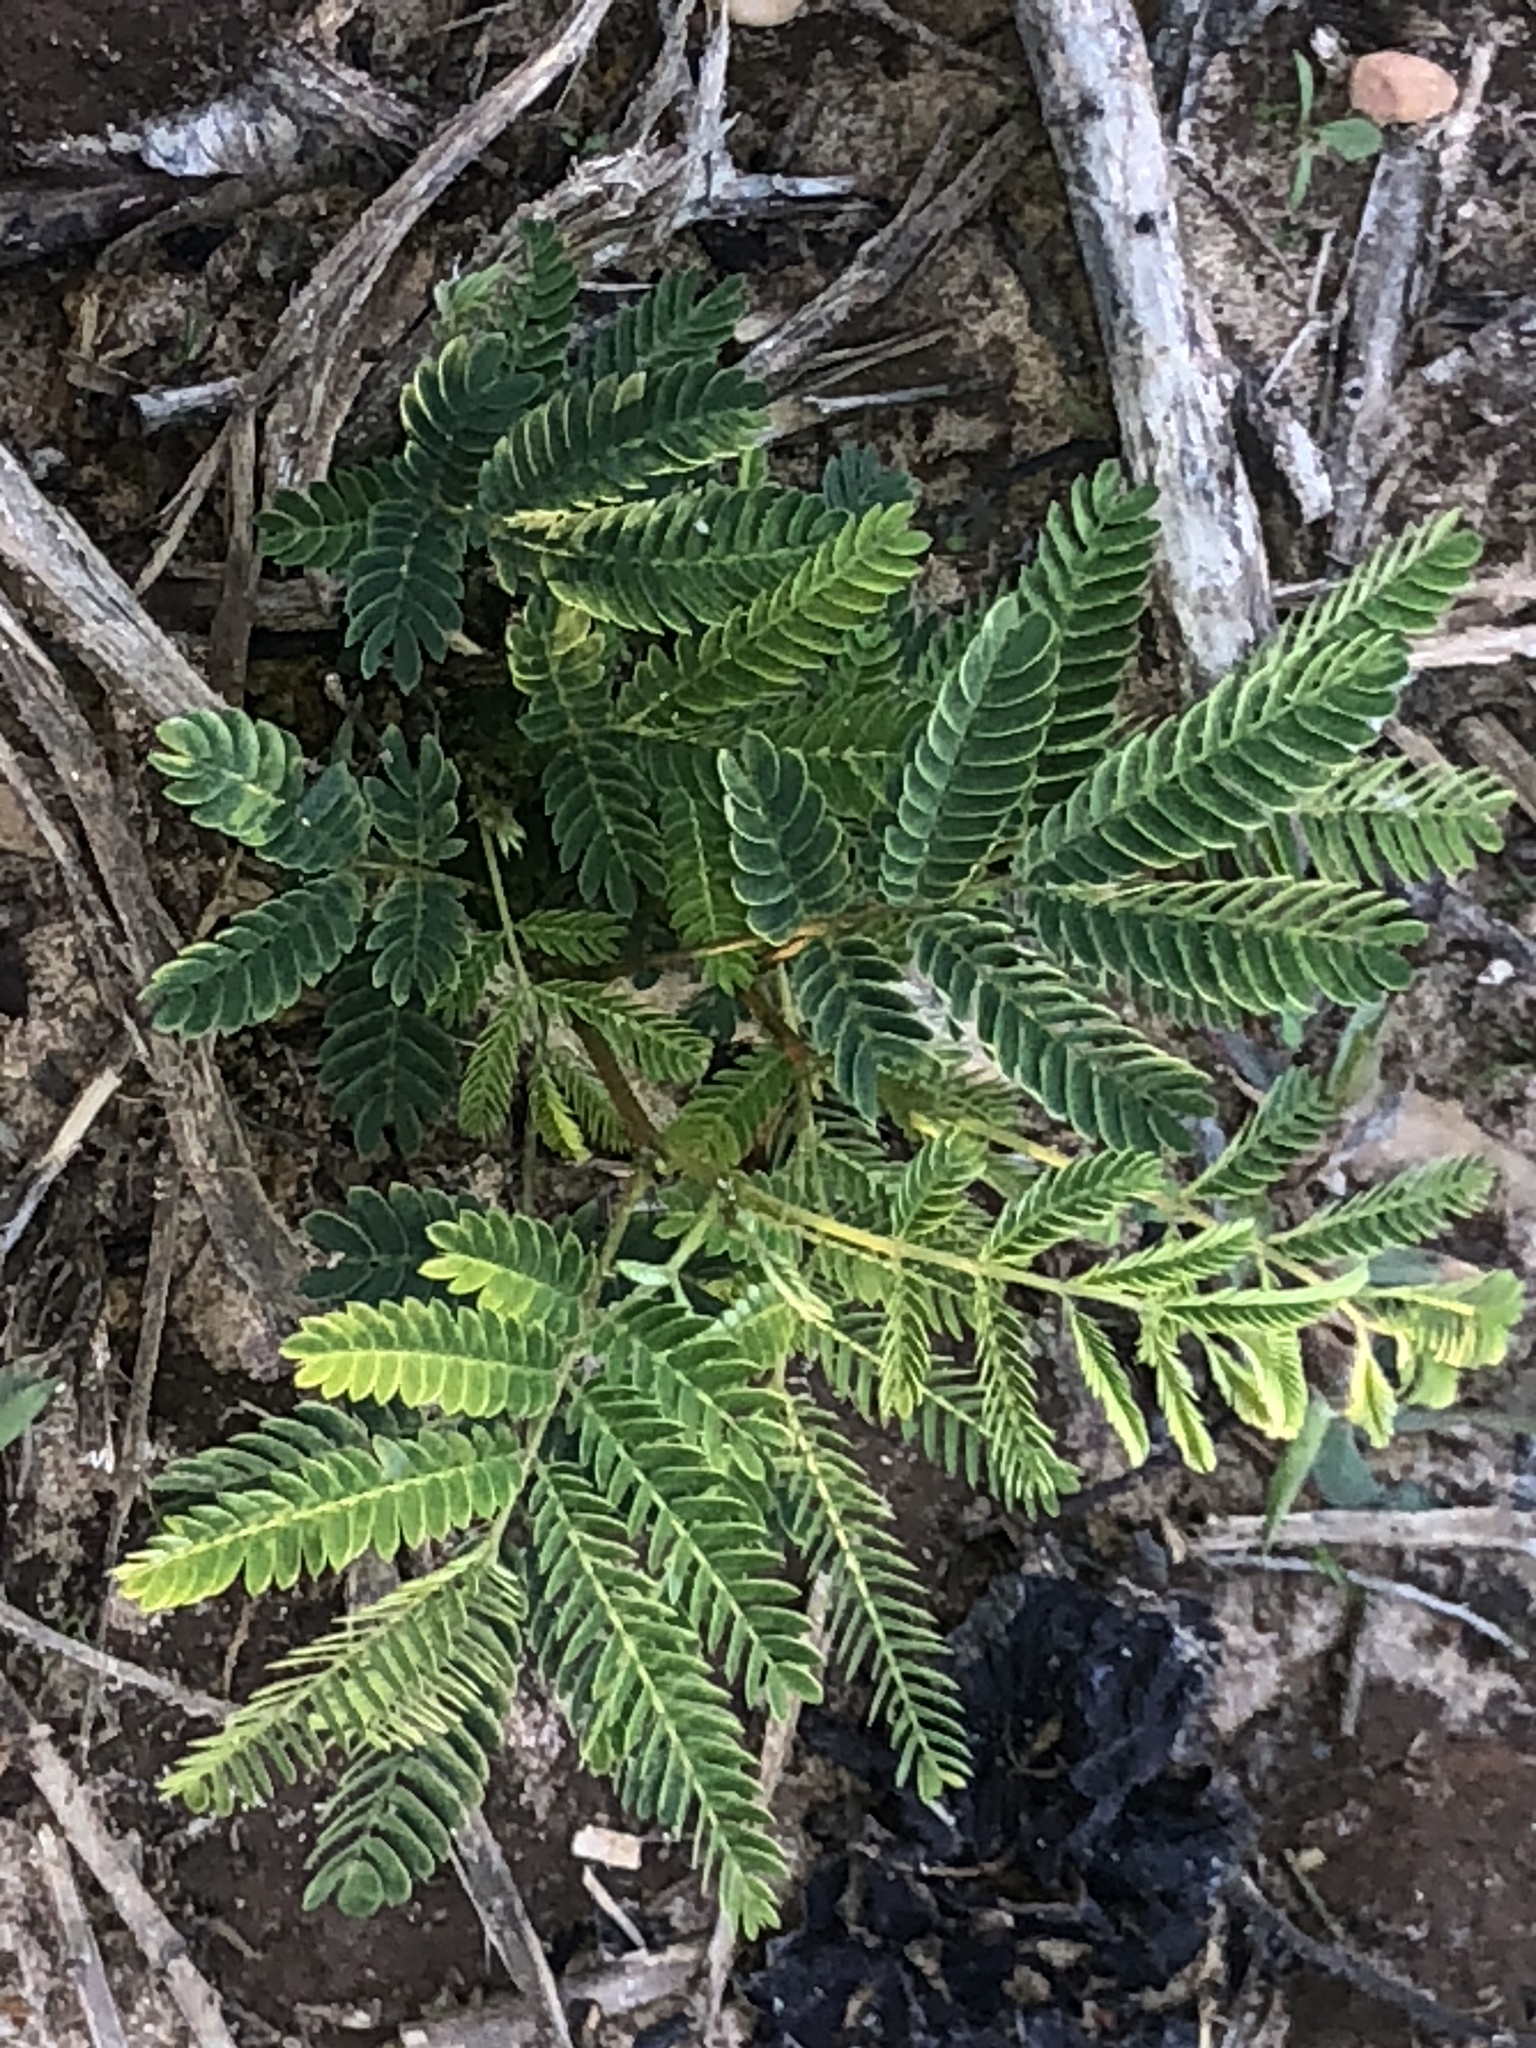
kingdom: Plantae
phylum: Tracheophyta
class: Magnoliopsida
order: Fabales
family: Fabaceae
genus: Albizia
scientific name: Albizia julibrissin
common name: Silktree
